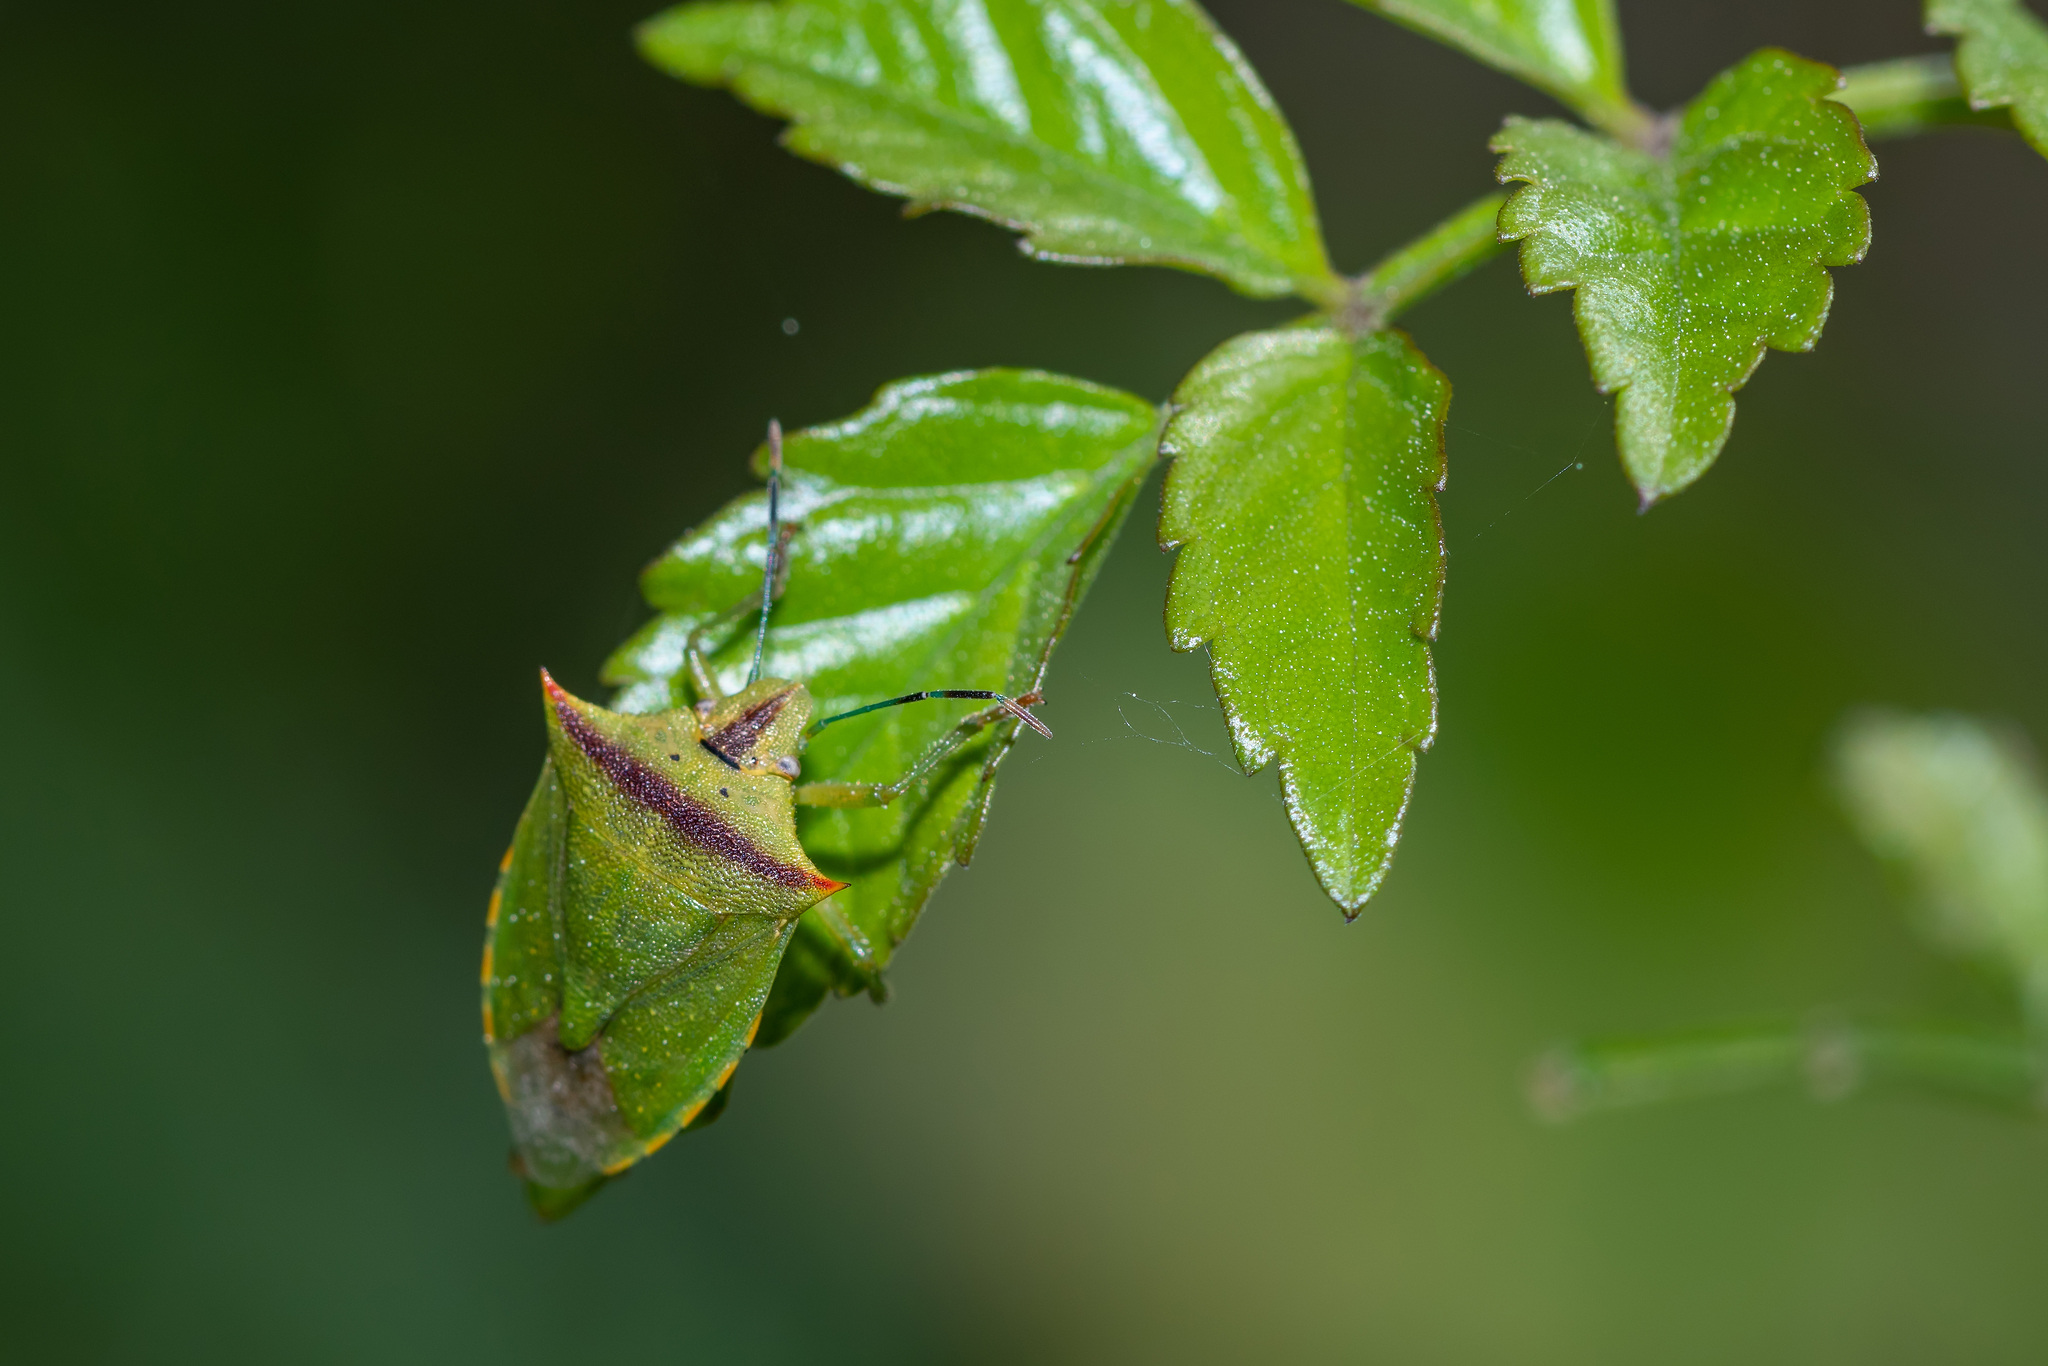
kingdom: Animalia
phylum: Arthropoda
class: Insecta
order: Hemiptera
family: Pentatomidae
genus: Thyanta
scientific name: Thyanta perditor
